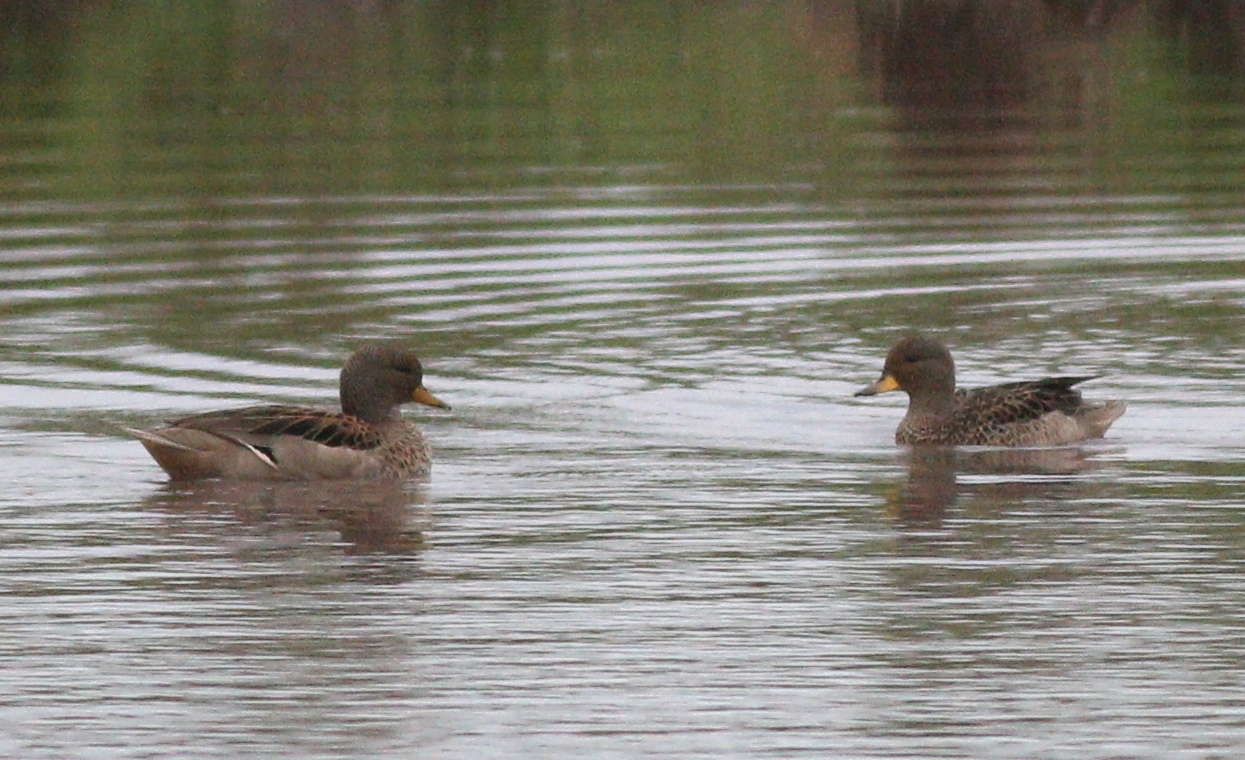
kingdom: Animalia
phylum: Chordata
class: Aves
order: Anseriformes
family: Anatidae
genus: Anas
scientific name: Anas flavirostris
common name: Yellow-billed teal
